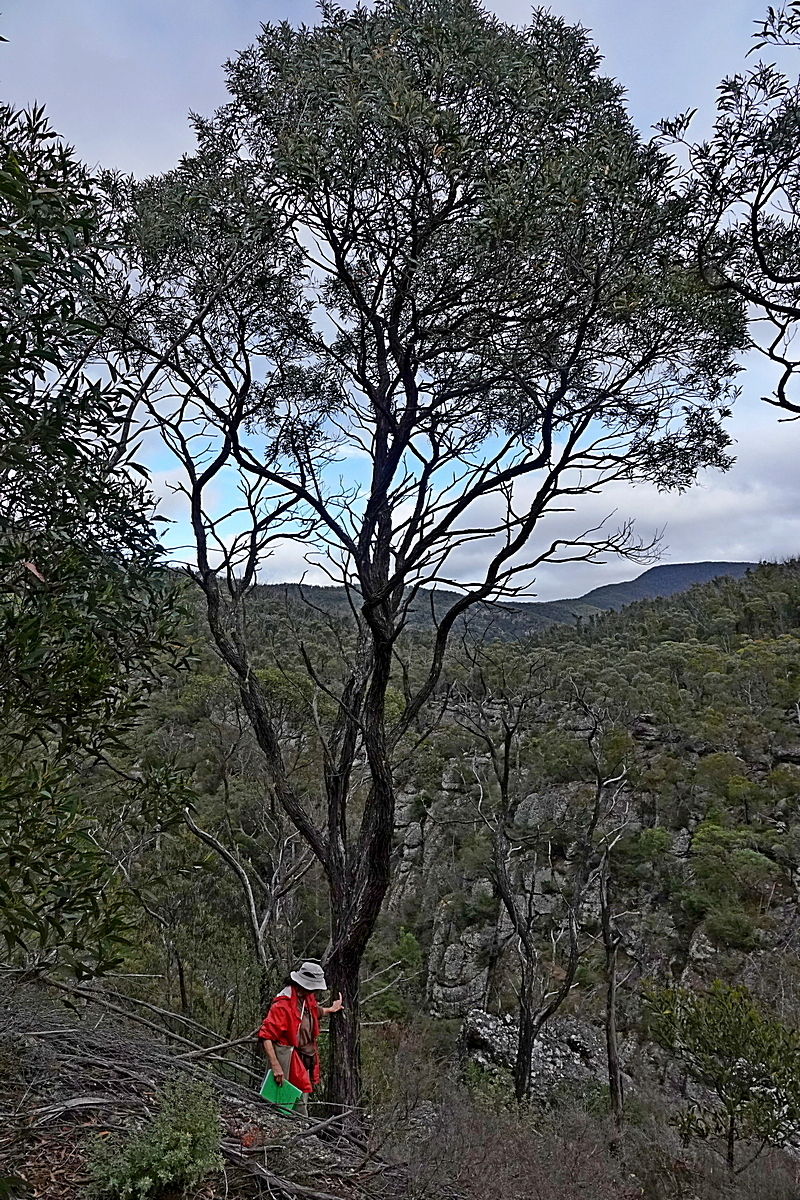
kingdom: Plantae
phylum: Tracheophyta
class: Magnoliopsida
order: Fabales
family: Fabaceae
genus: Acacia
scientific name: Acacia georgensis
